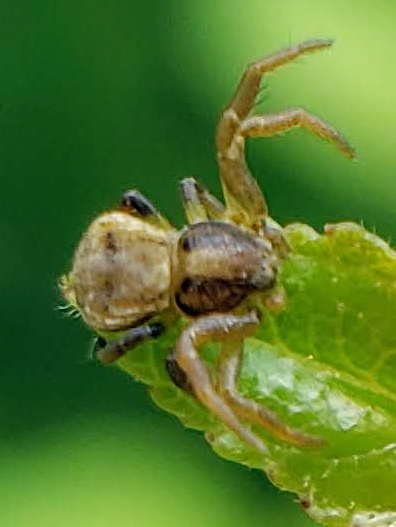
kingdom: Animalia
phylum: Arthropoda
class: Arachnida
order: Araneae
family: Thomisidae
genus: Ozyptila
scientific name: Ozyptila
